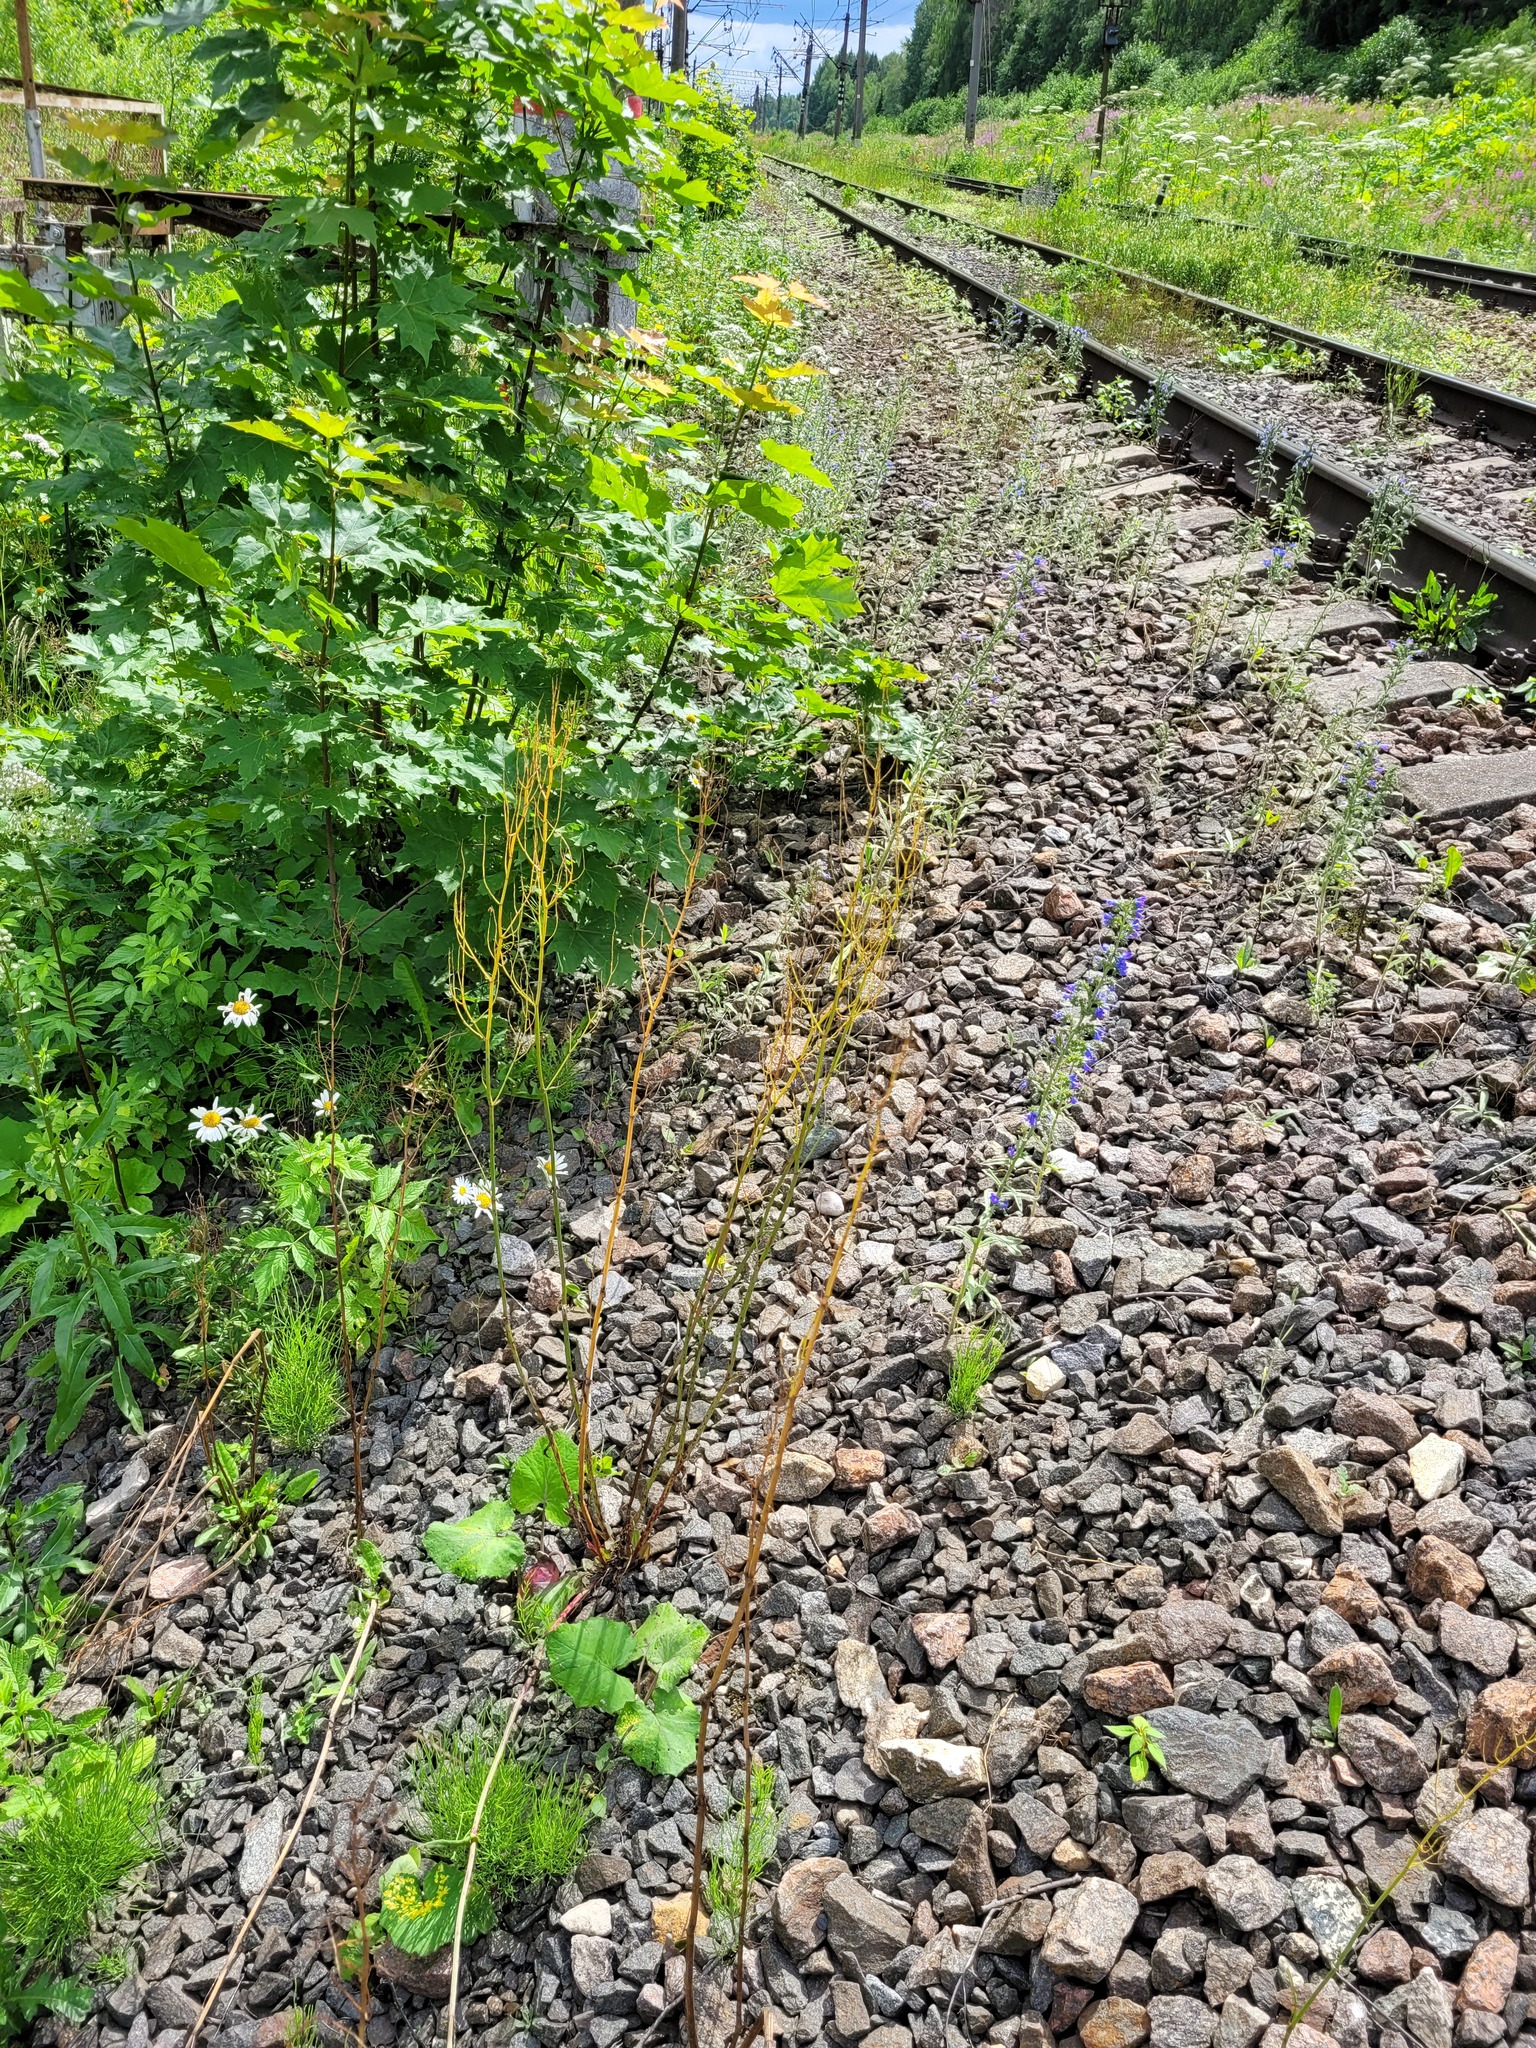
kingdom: Plantae
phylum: Tracheophyta
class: Magnoliopsida
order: Caryophyllales
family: Polygonaceae
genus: Rumex
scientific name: Rumex thyrsiflorus
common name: Garden sorrel
